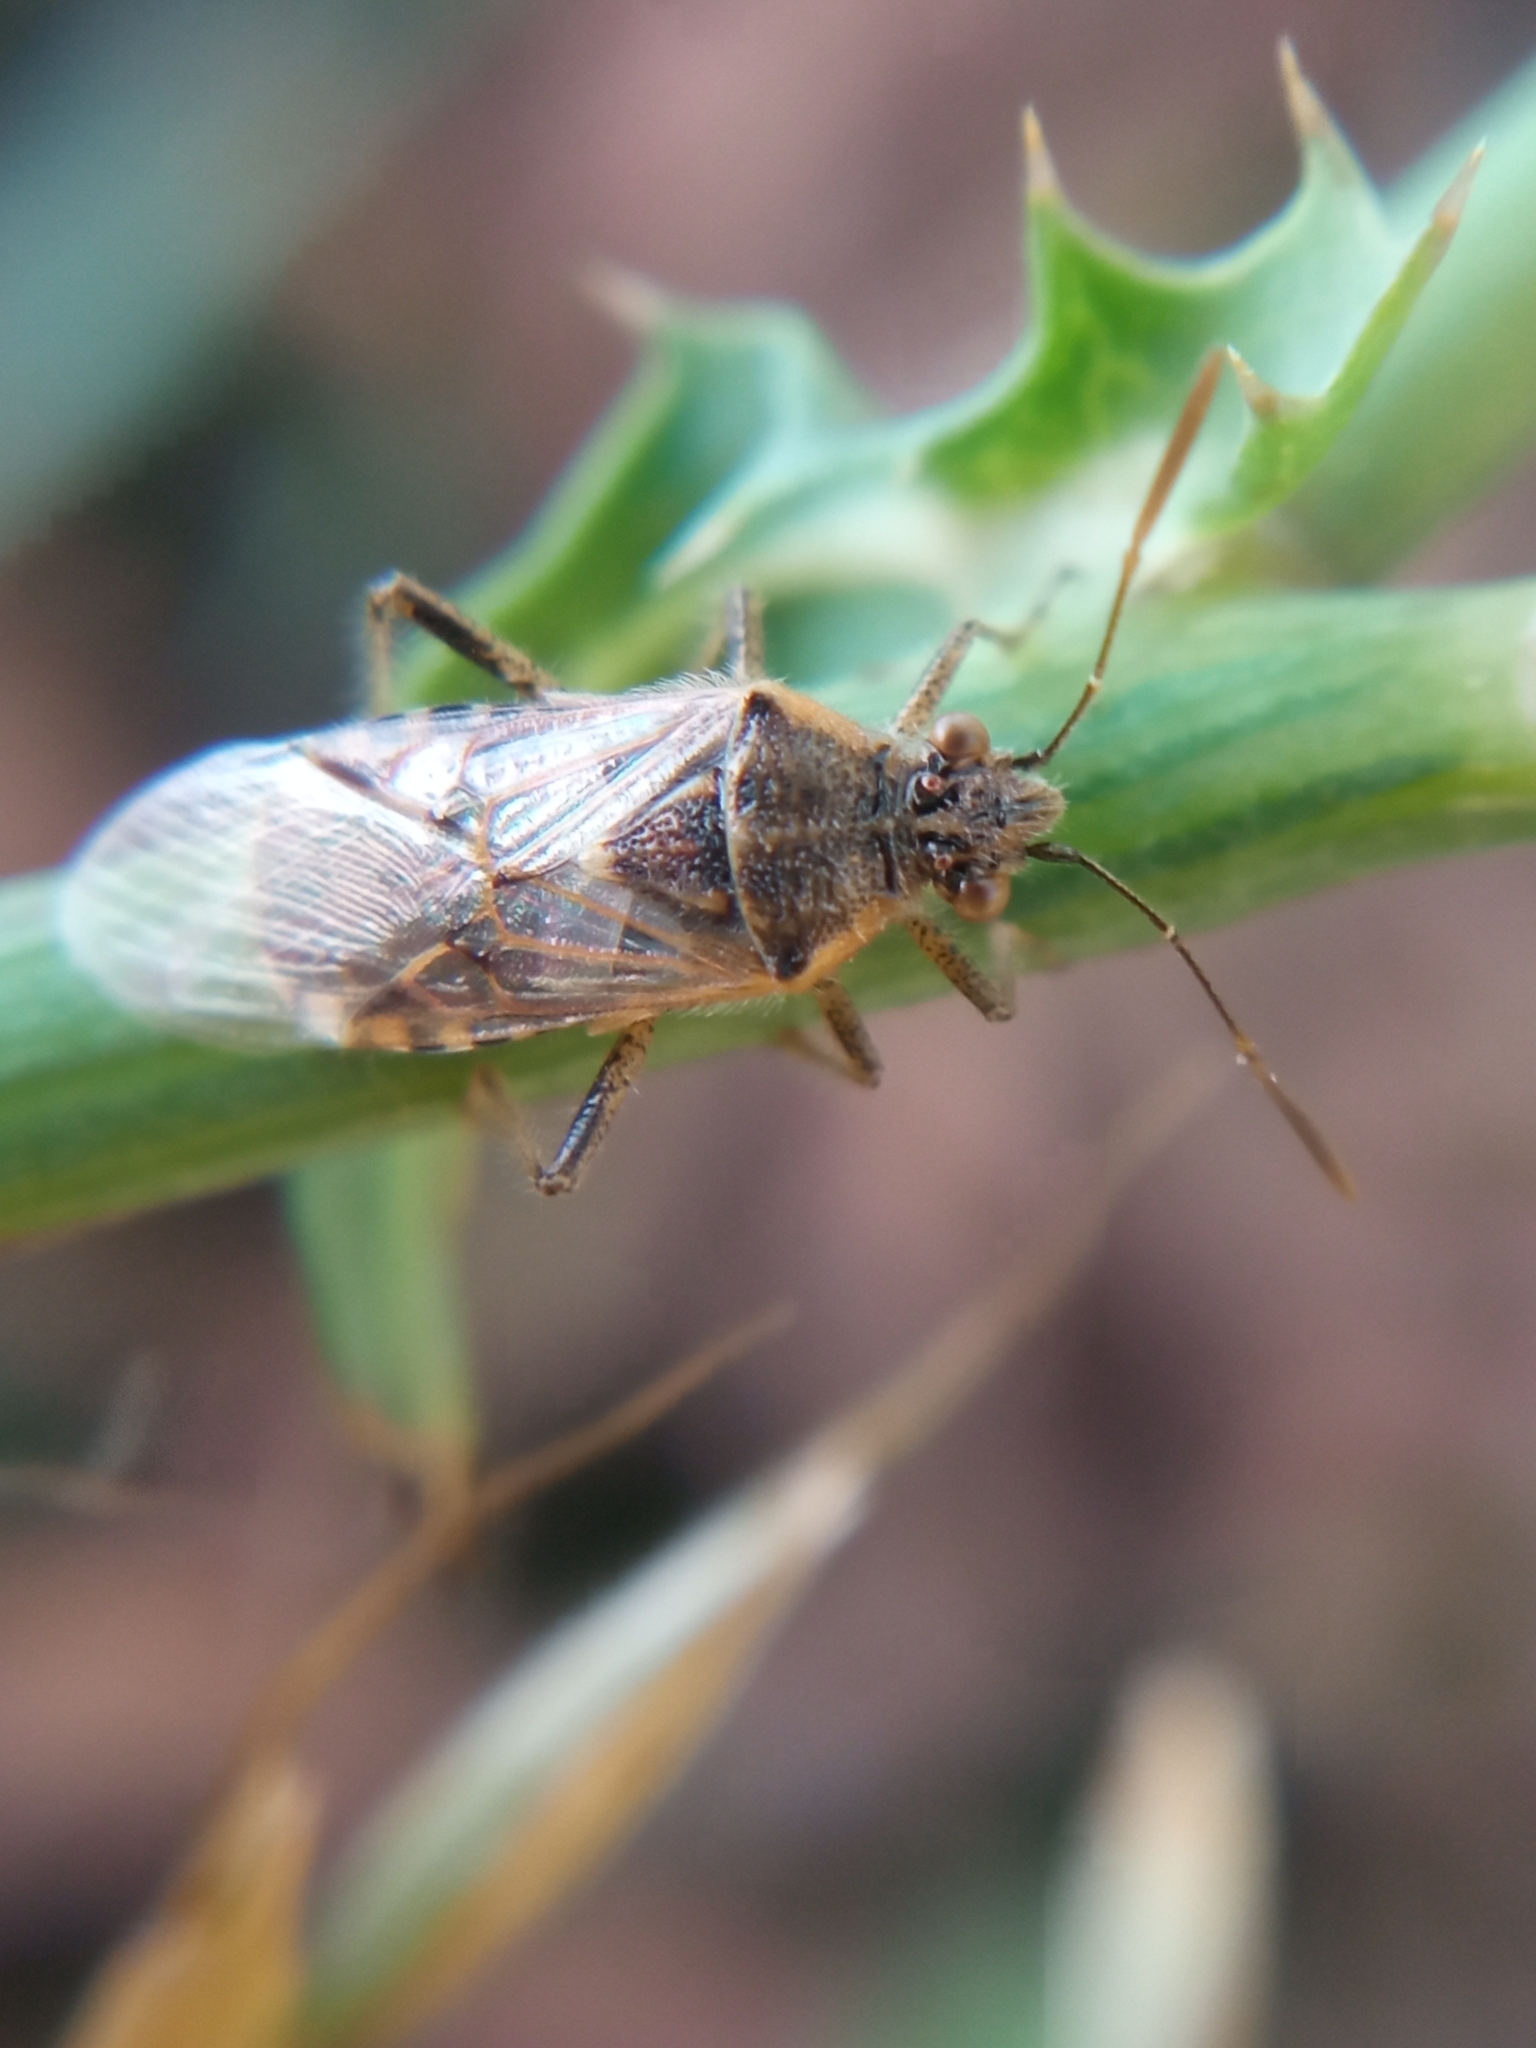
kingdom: Animalia
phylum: Arthropoda
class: Insecta
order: Hemiptera
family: Rhopalidae
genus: Liorhyssus
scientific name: Liorhyssus hyalinus
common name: Scentless plant bug
